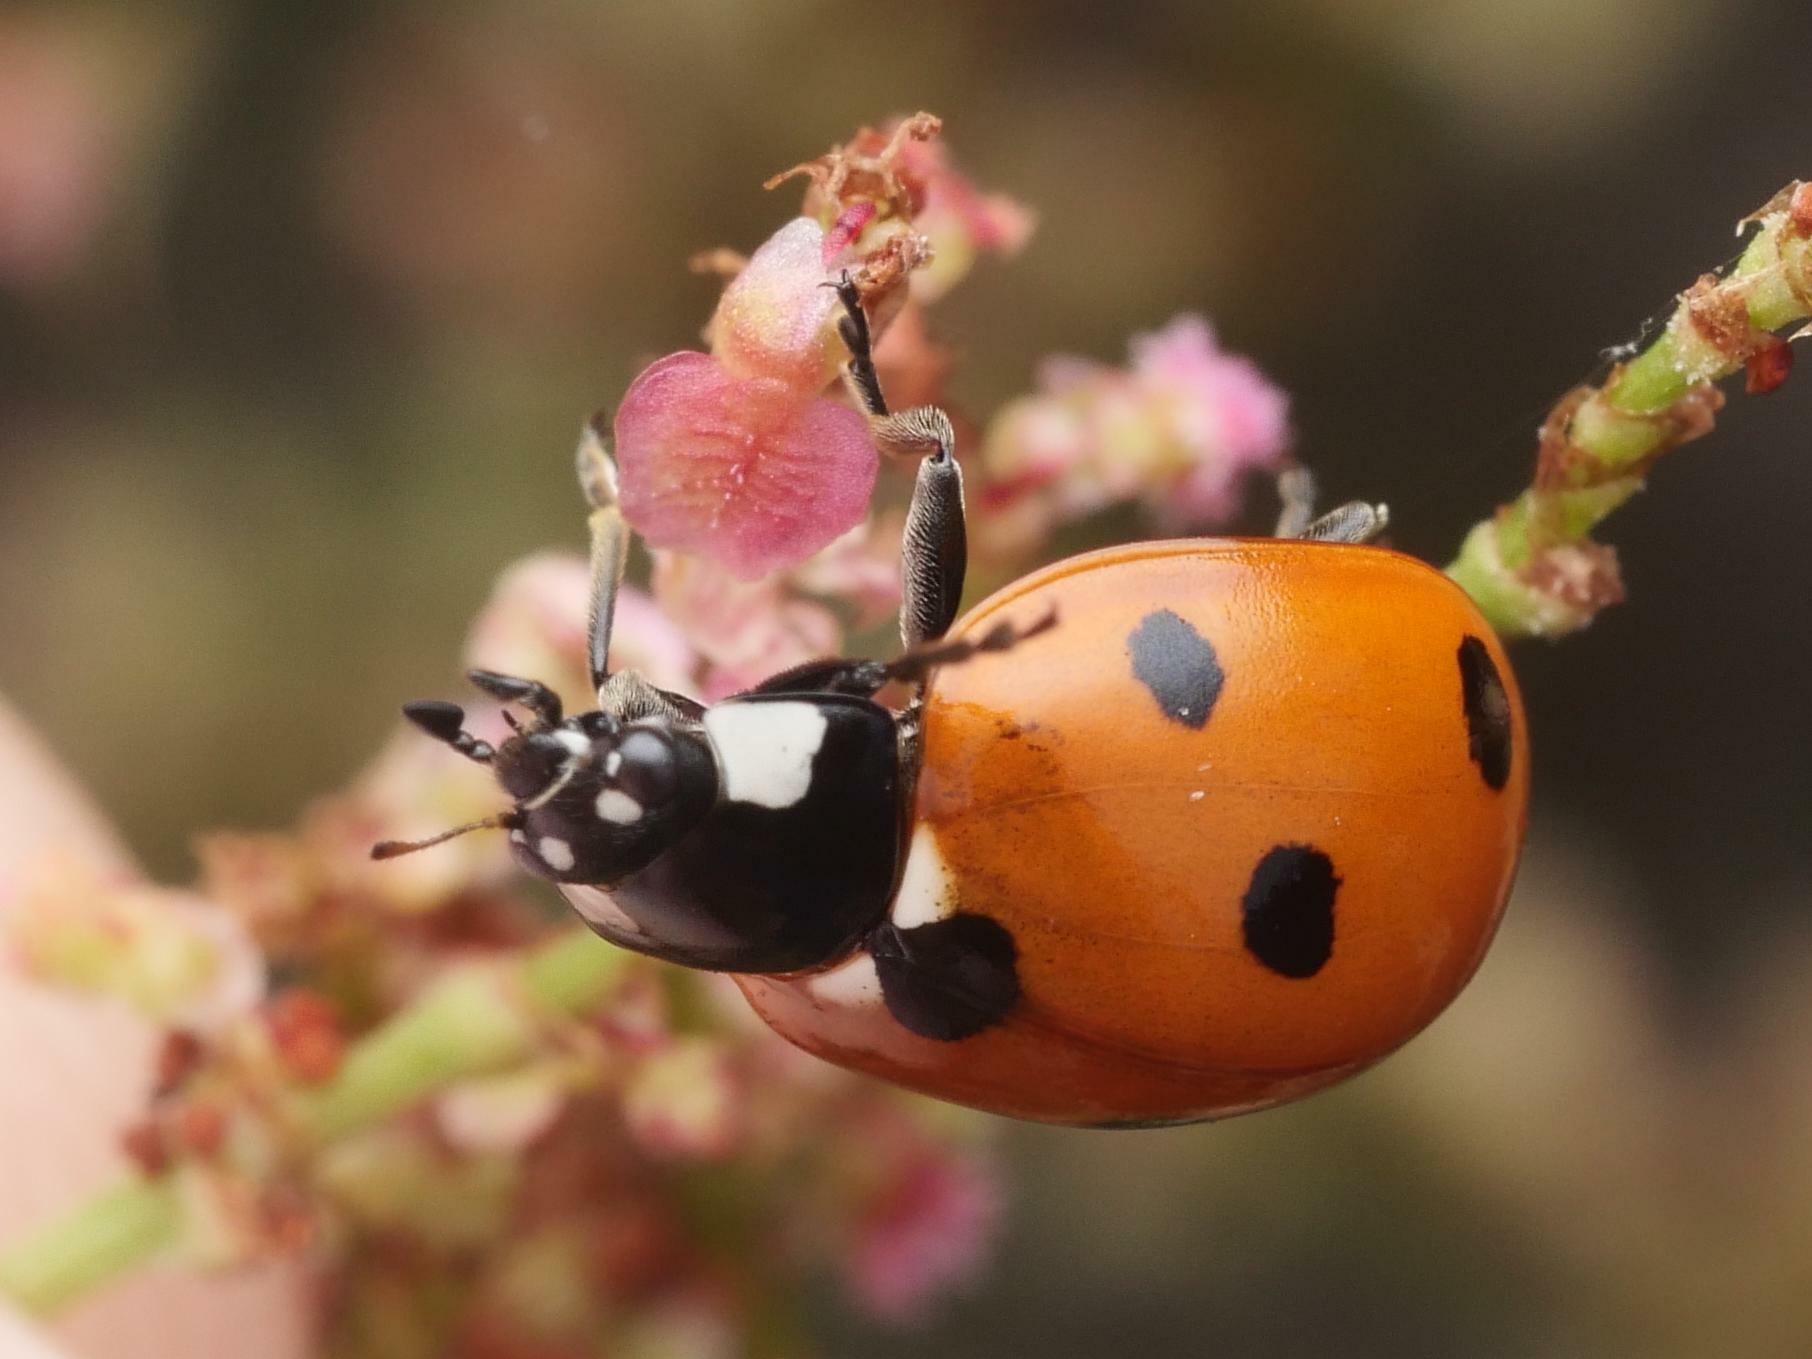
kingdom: Animalia
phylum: Arthropoda
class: Insecta
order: Coleoptera
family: Coccinellidae
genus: Coccinella
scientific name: Coccinella septempunctata
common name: Sevenspotted lady beetle
